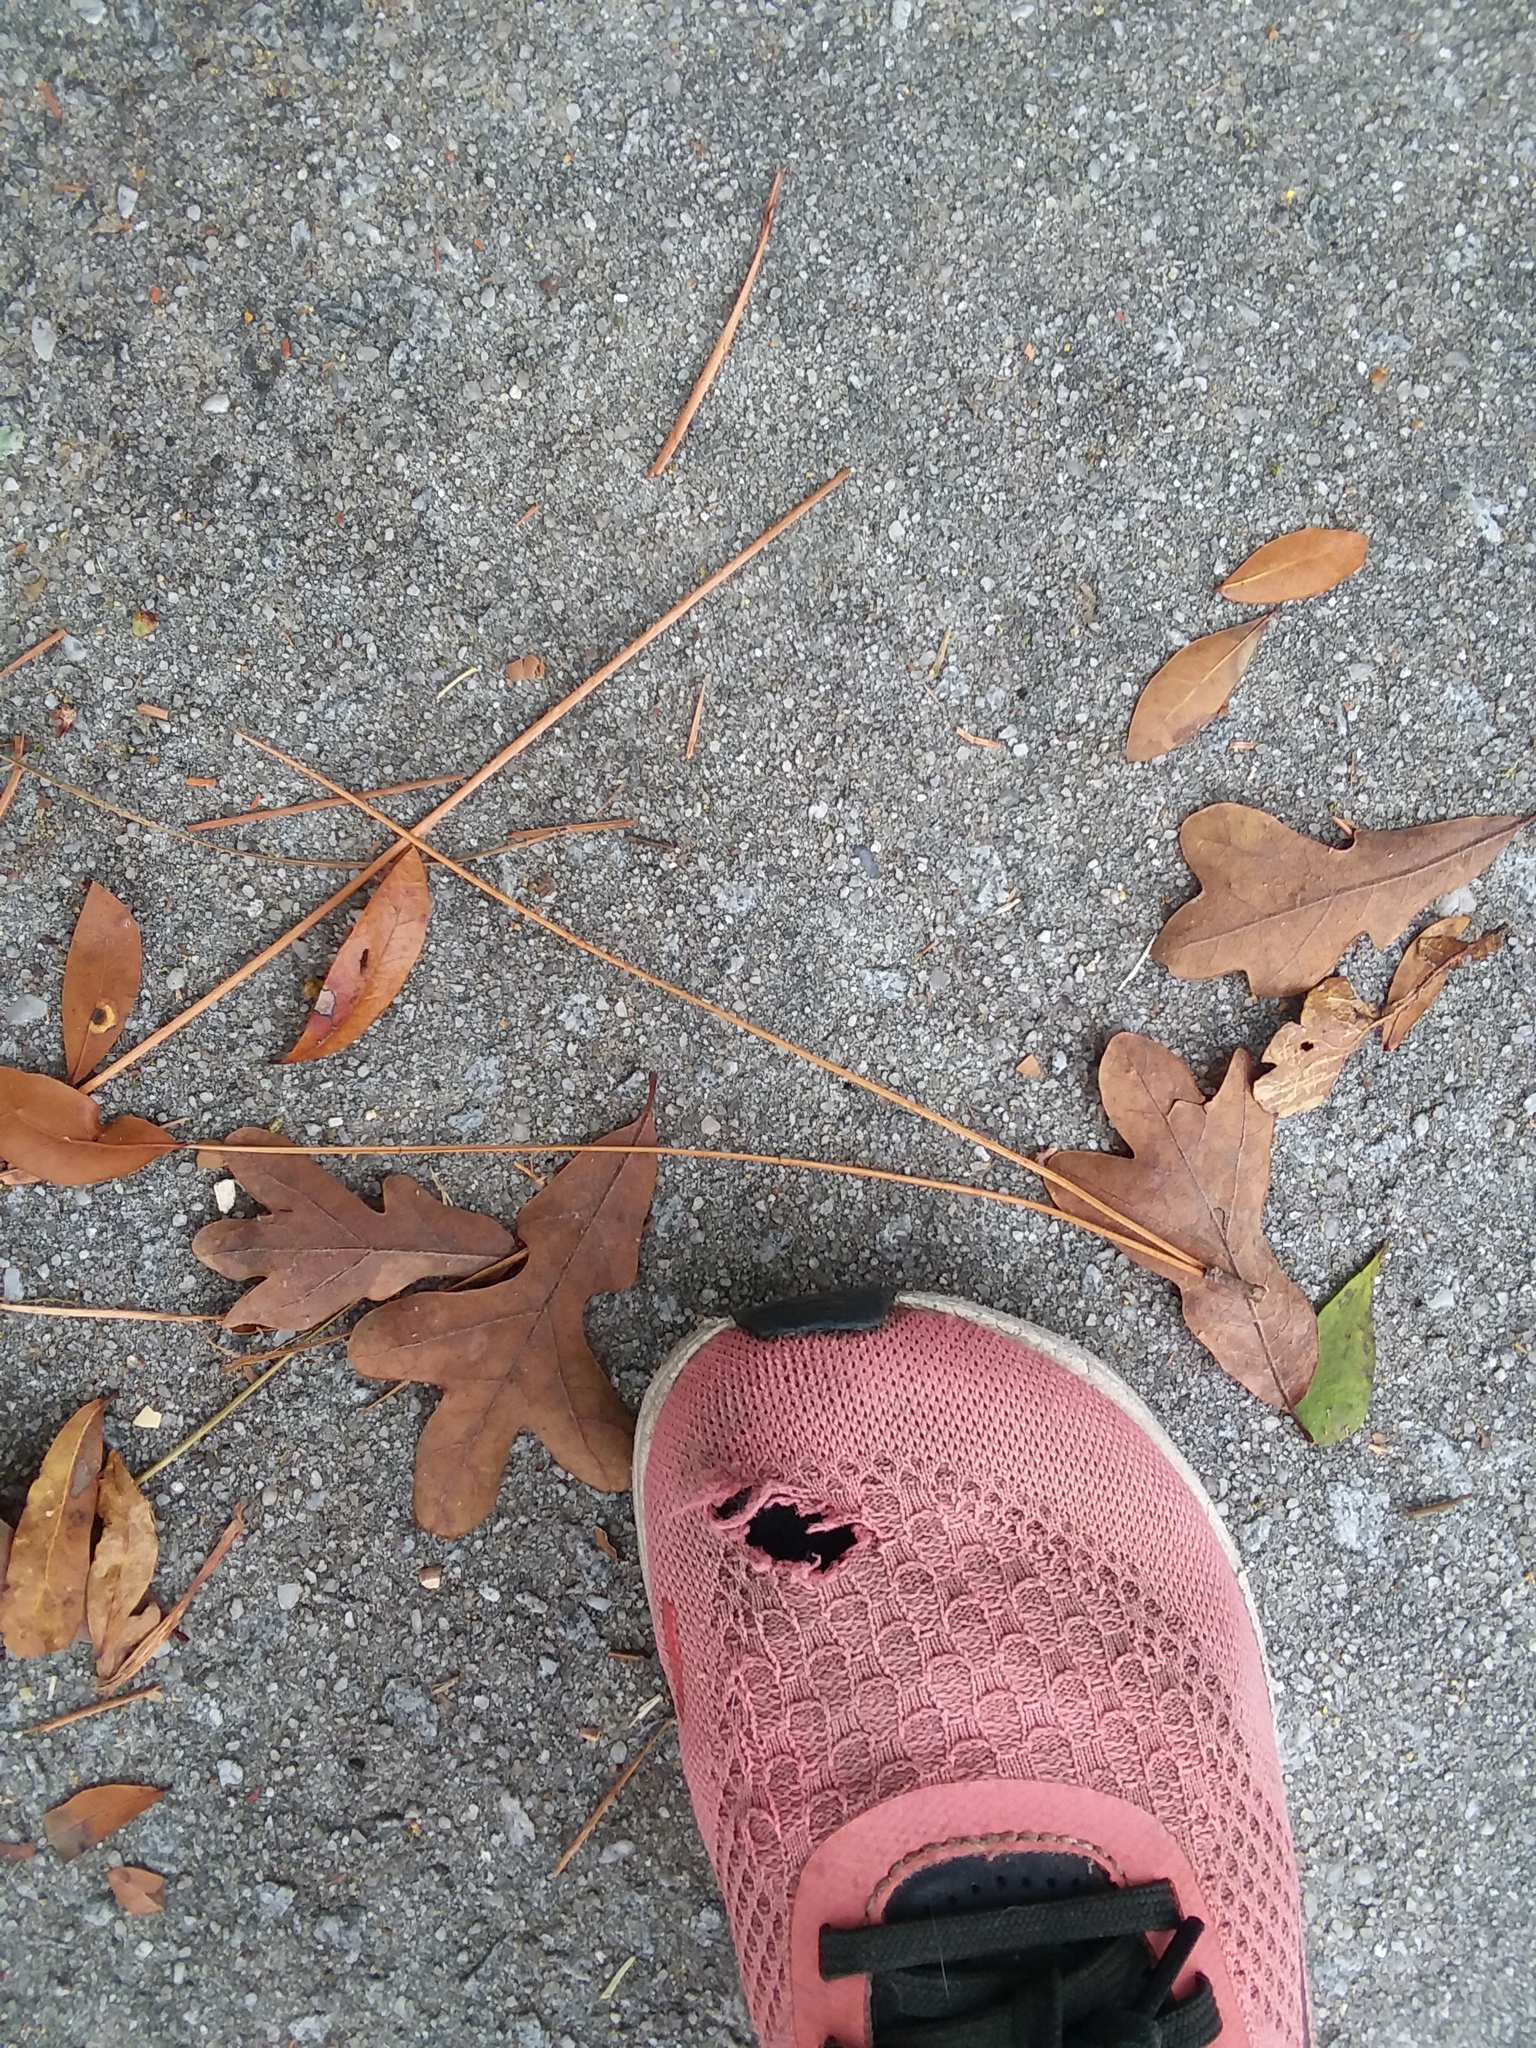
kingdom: Plantae
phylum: Tracheophyta
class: Magnoliopsida
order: Fagales
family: Fagaceae
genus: Quercus
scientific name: Quercus margaretiae
